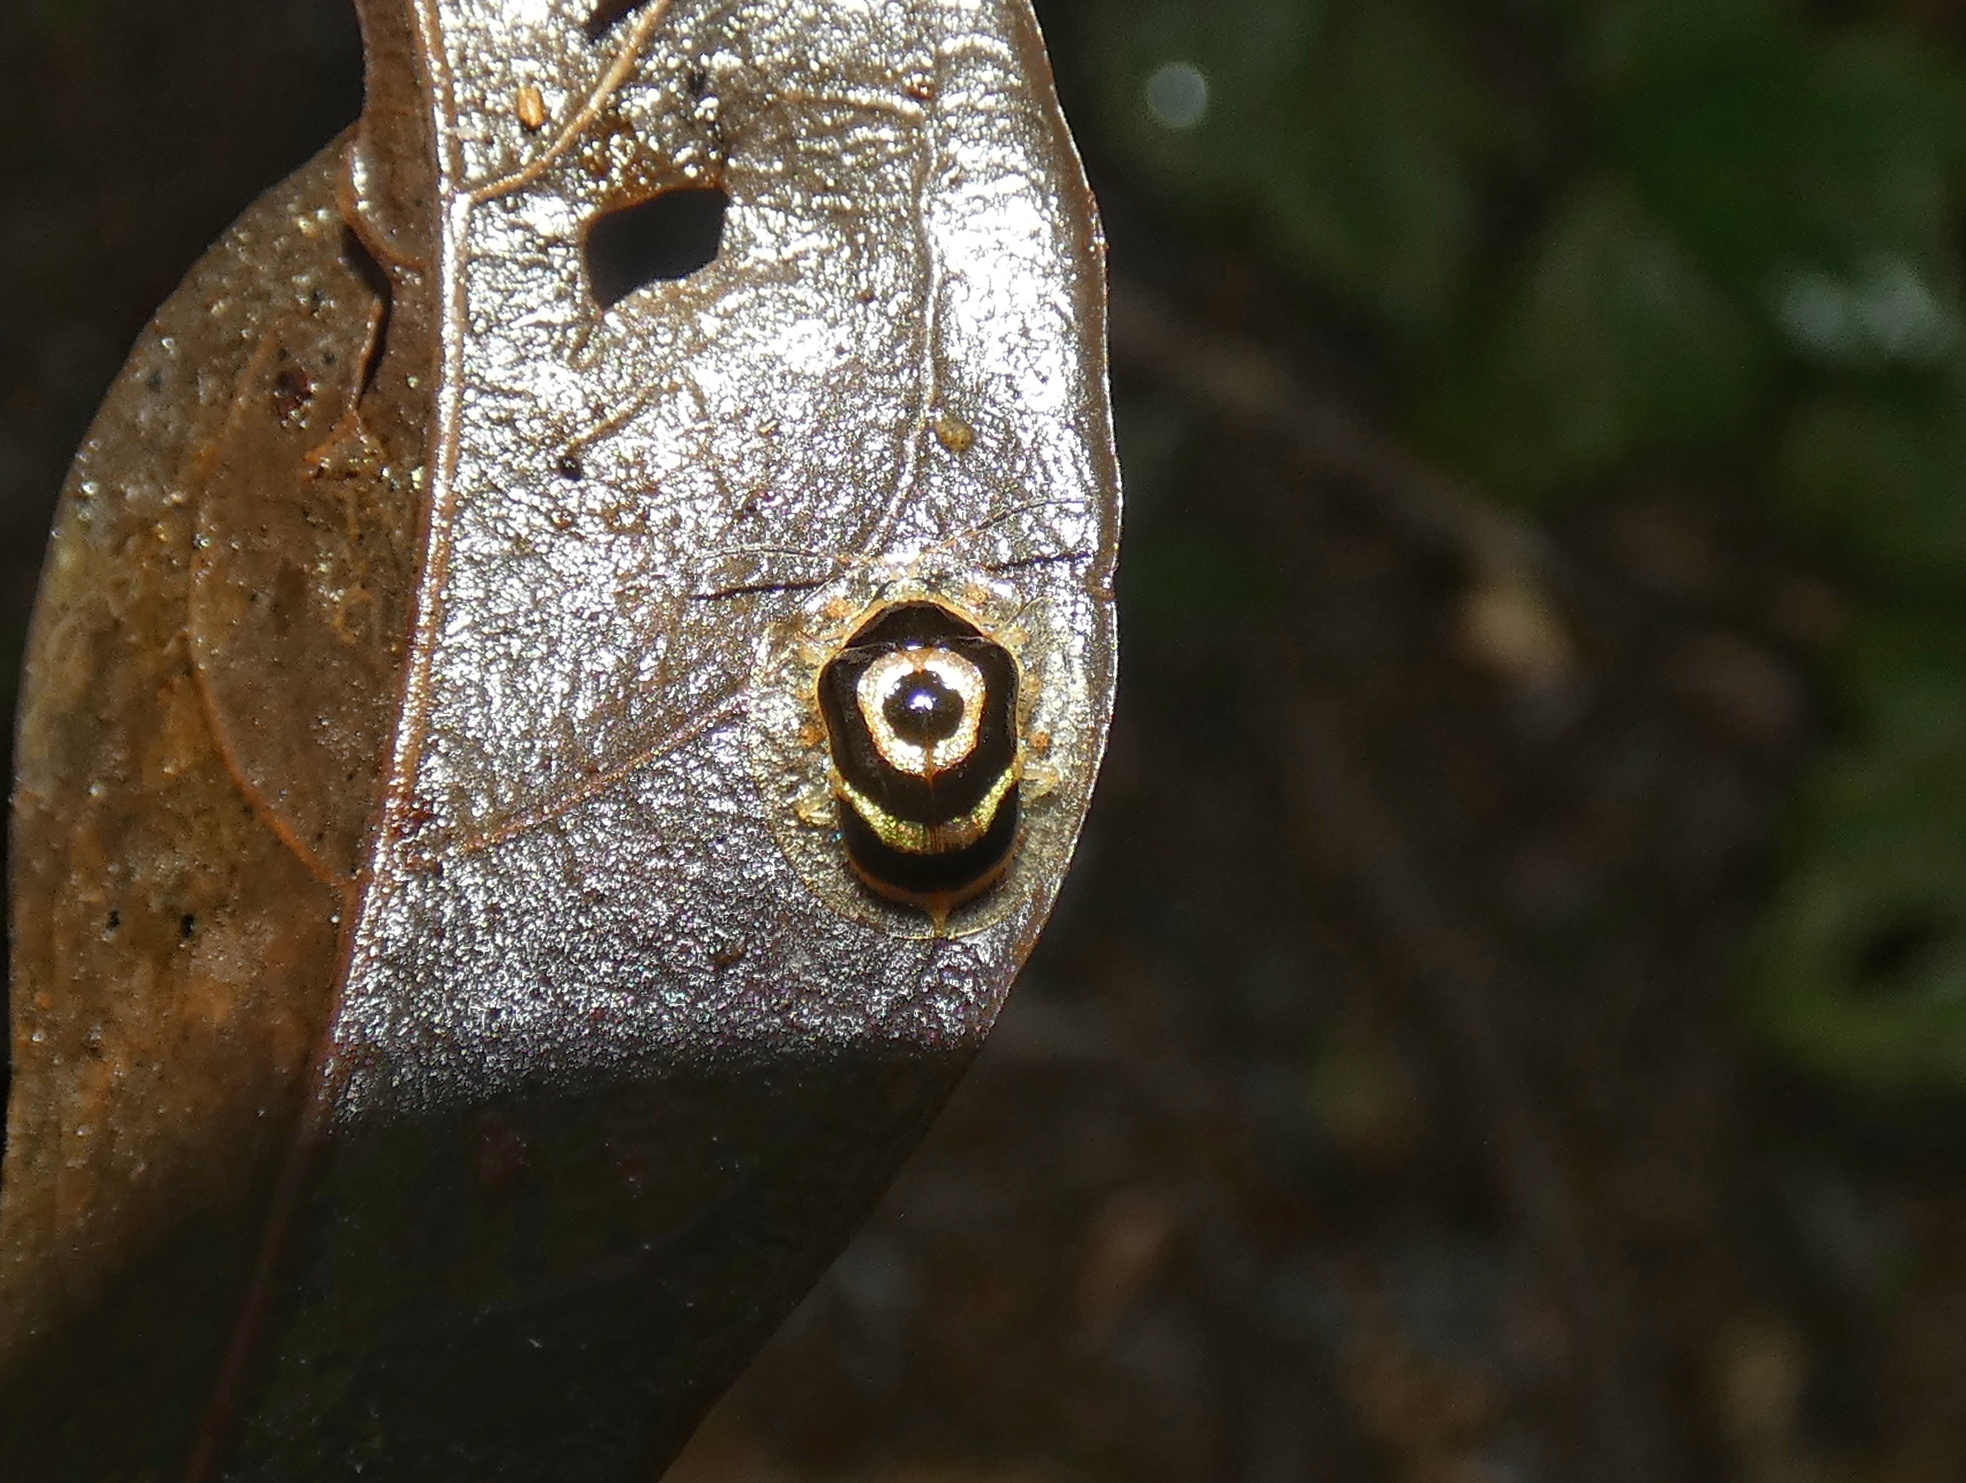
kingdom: Animalia
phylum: Arthropoda
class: Insecta
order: Coleoptera
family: Chrysomelidae
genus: Ischnocodia
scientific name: Ischnocodia annulus
